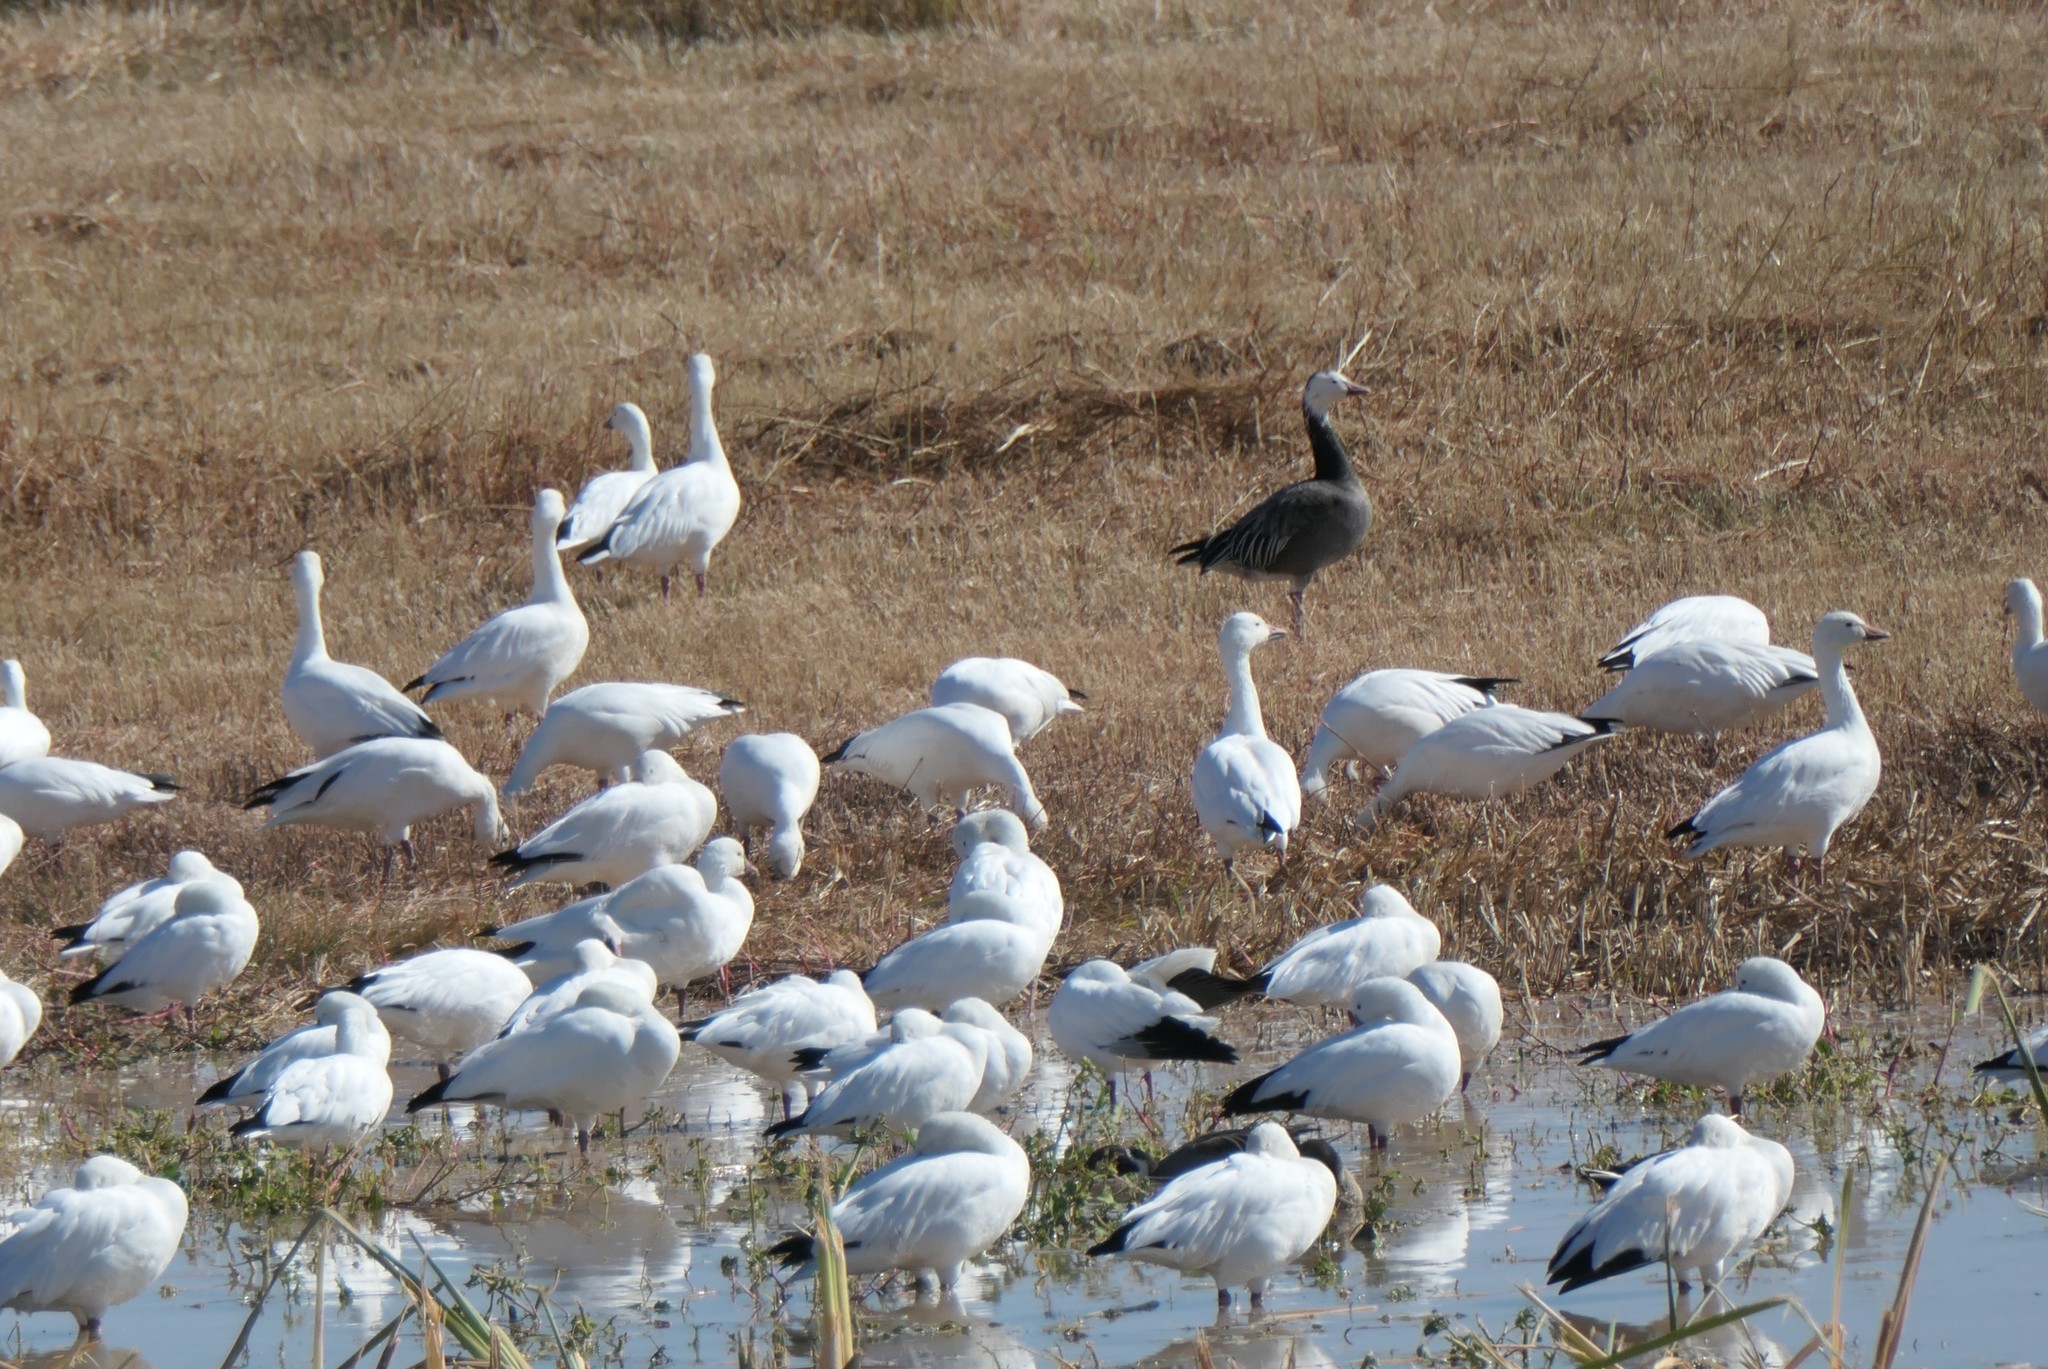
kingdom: Animalia
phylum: Chordata
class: Aves
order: Anseriformes
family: Anatidae
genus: Anser
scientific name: Anser caerulescens
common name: Snow goose
